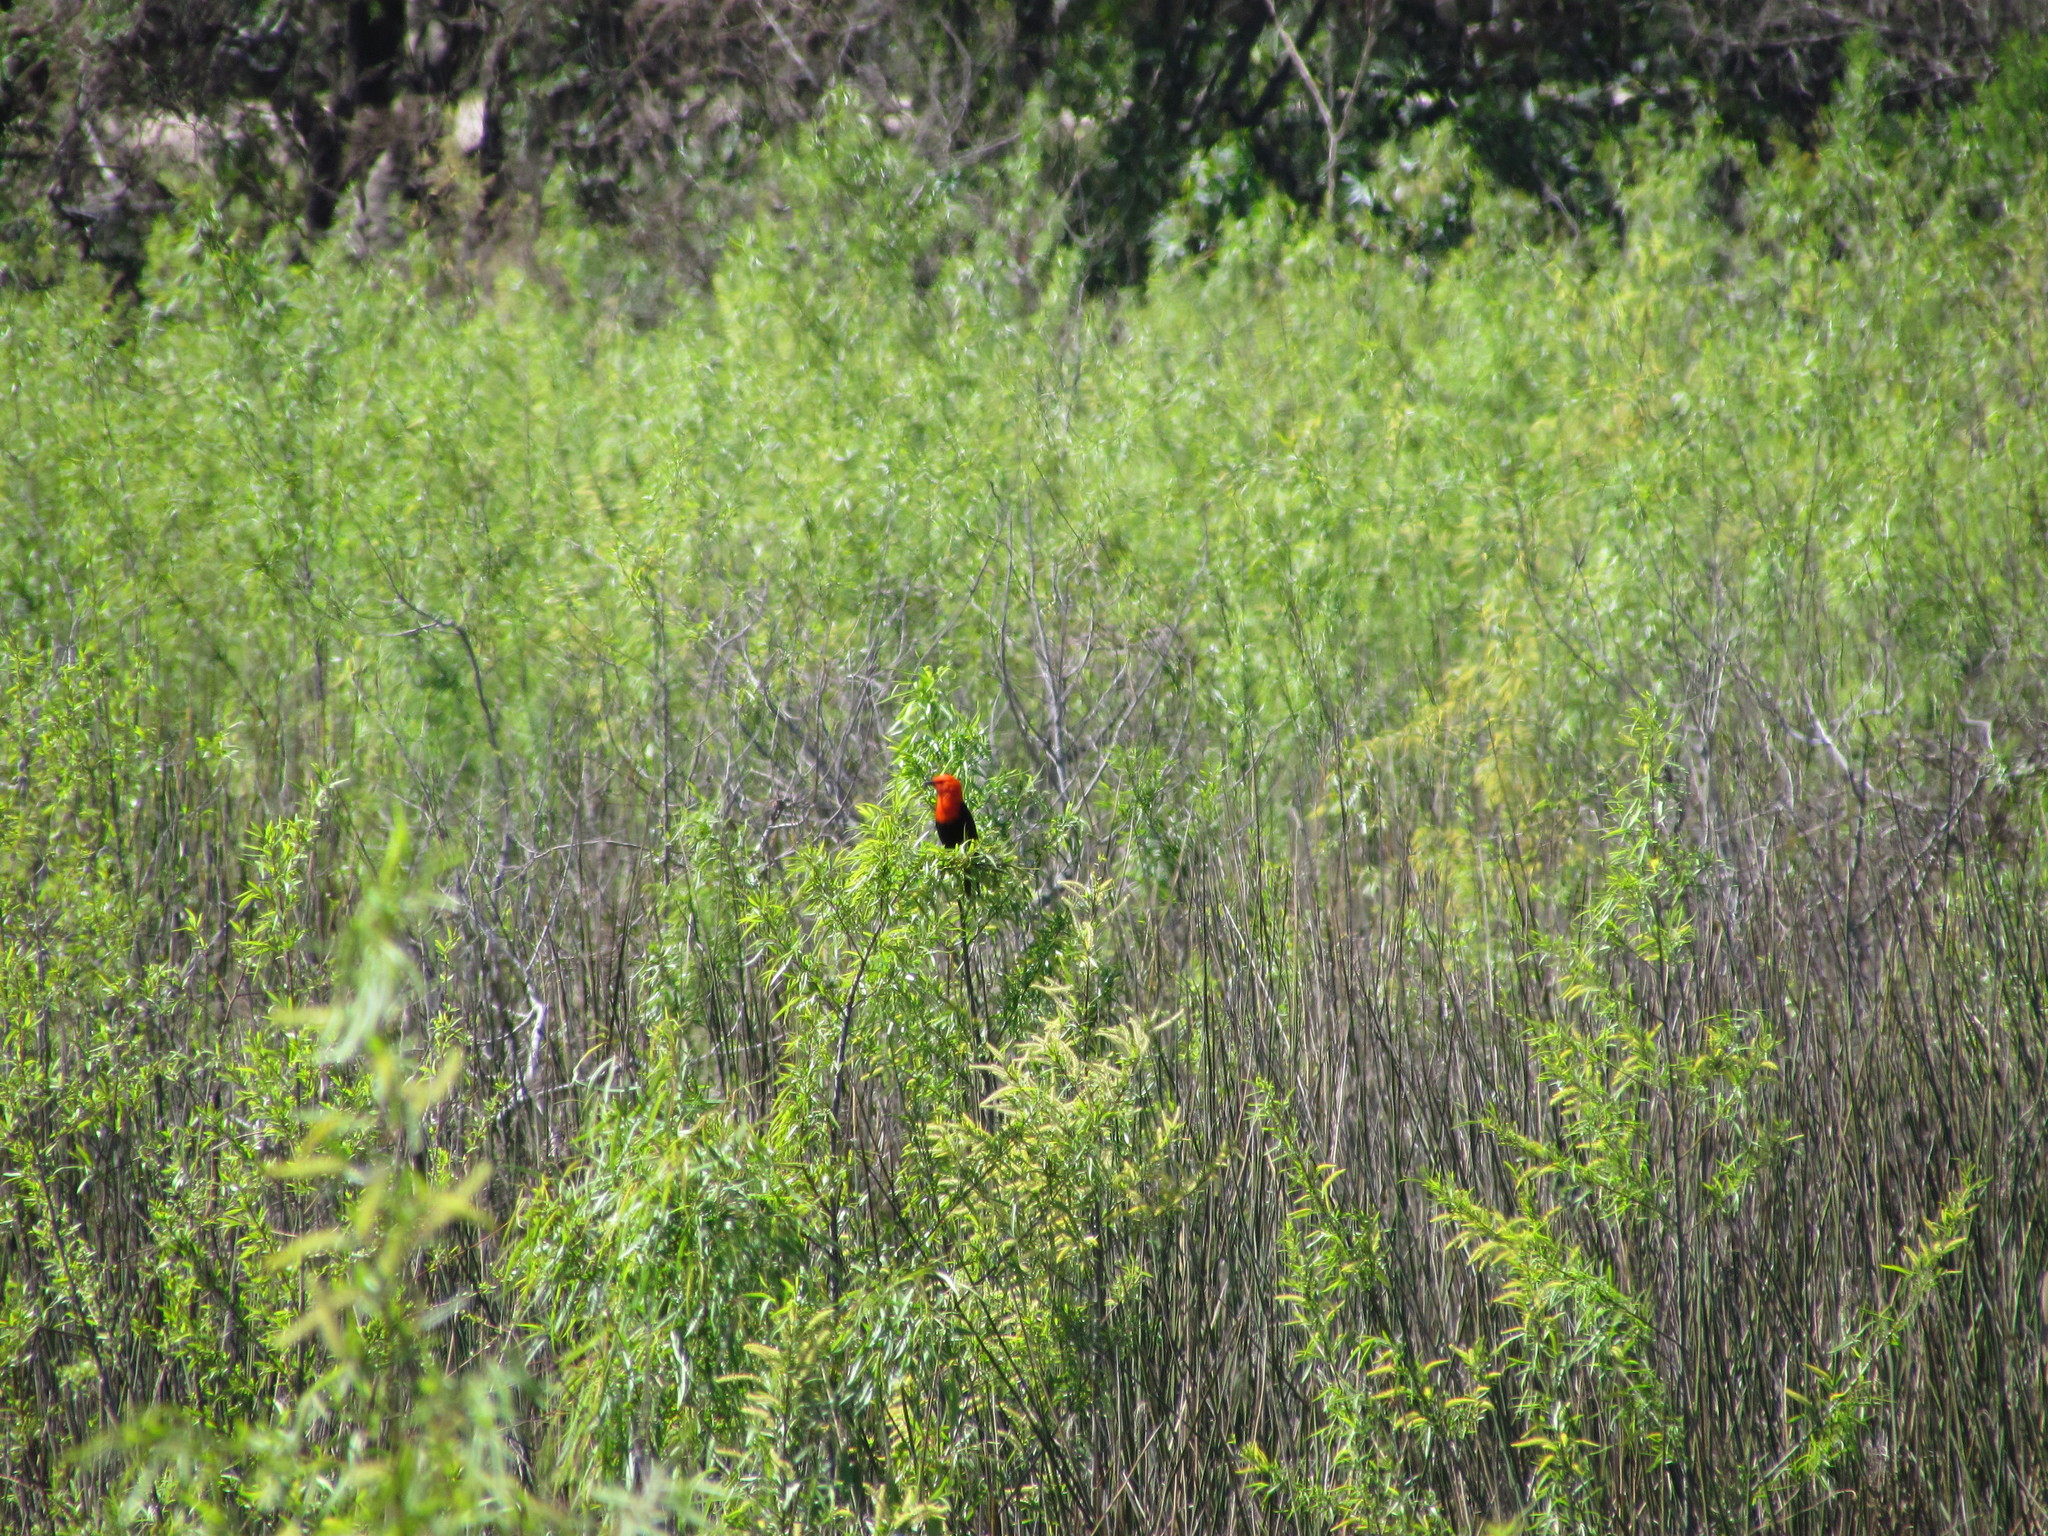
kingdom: Animalia
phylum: Chordata
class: Aves
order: Passeriformes
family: Icteridae
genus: Amblyramphus
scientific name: Amblyramphus holosericeus
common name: Scarlet-headed blackbird
